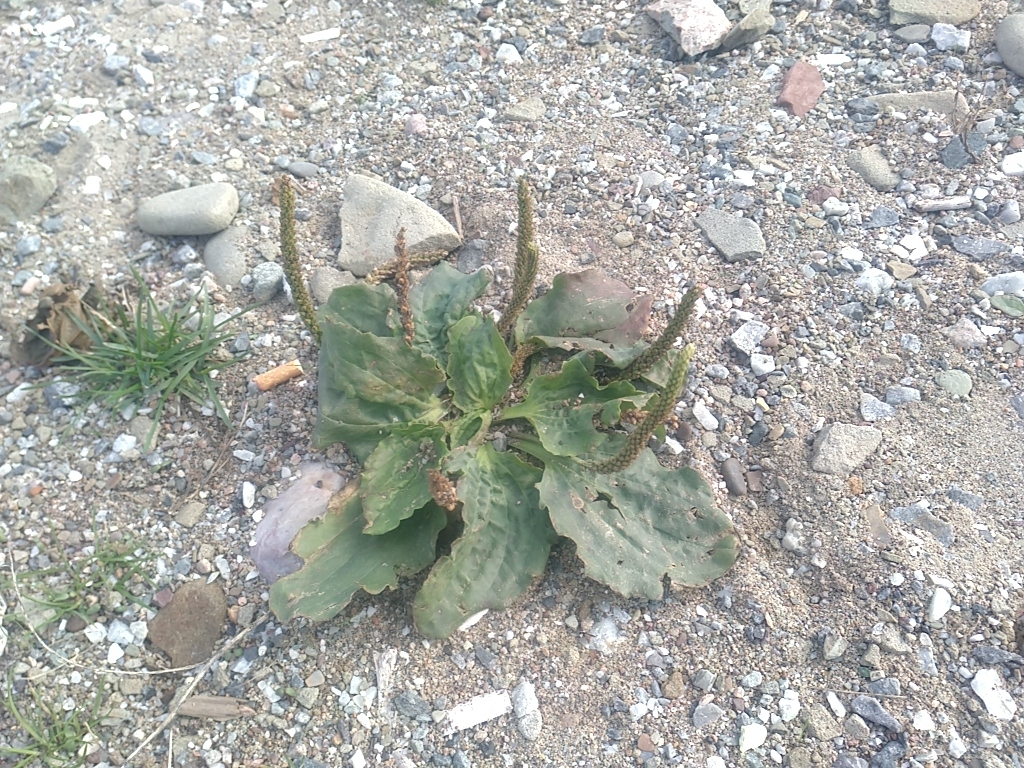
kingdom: Plantae
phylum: Tracheophyta
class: Magnoliopsida
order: Lamiales
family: Plantaginaceae
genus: Plantago
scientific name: Plantago major
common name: Common plantain
